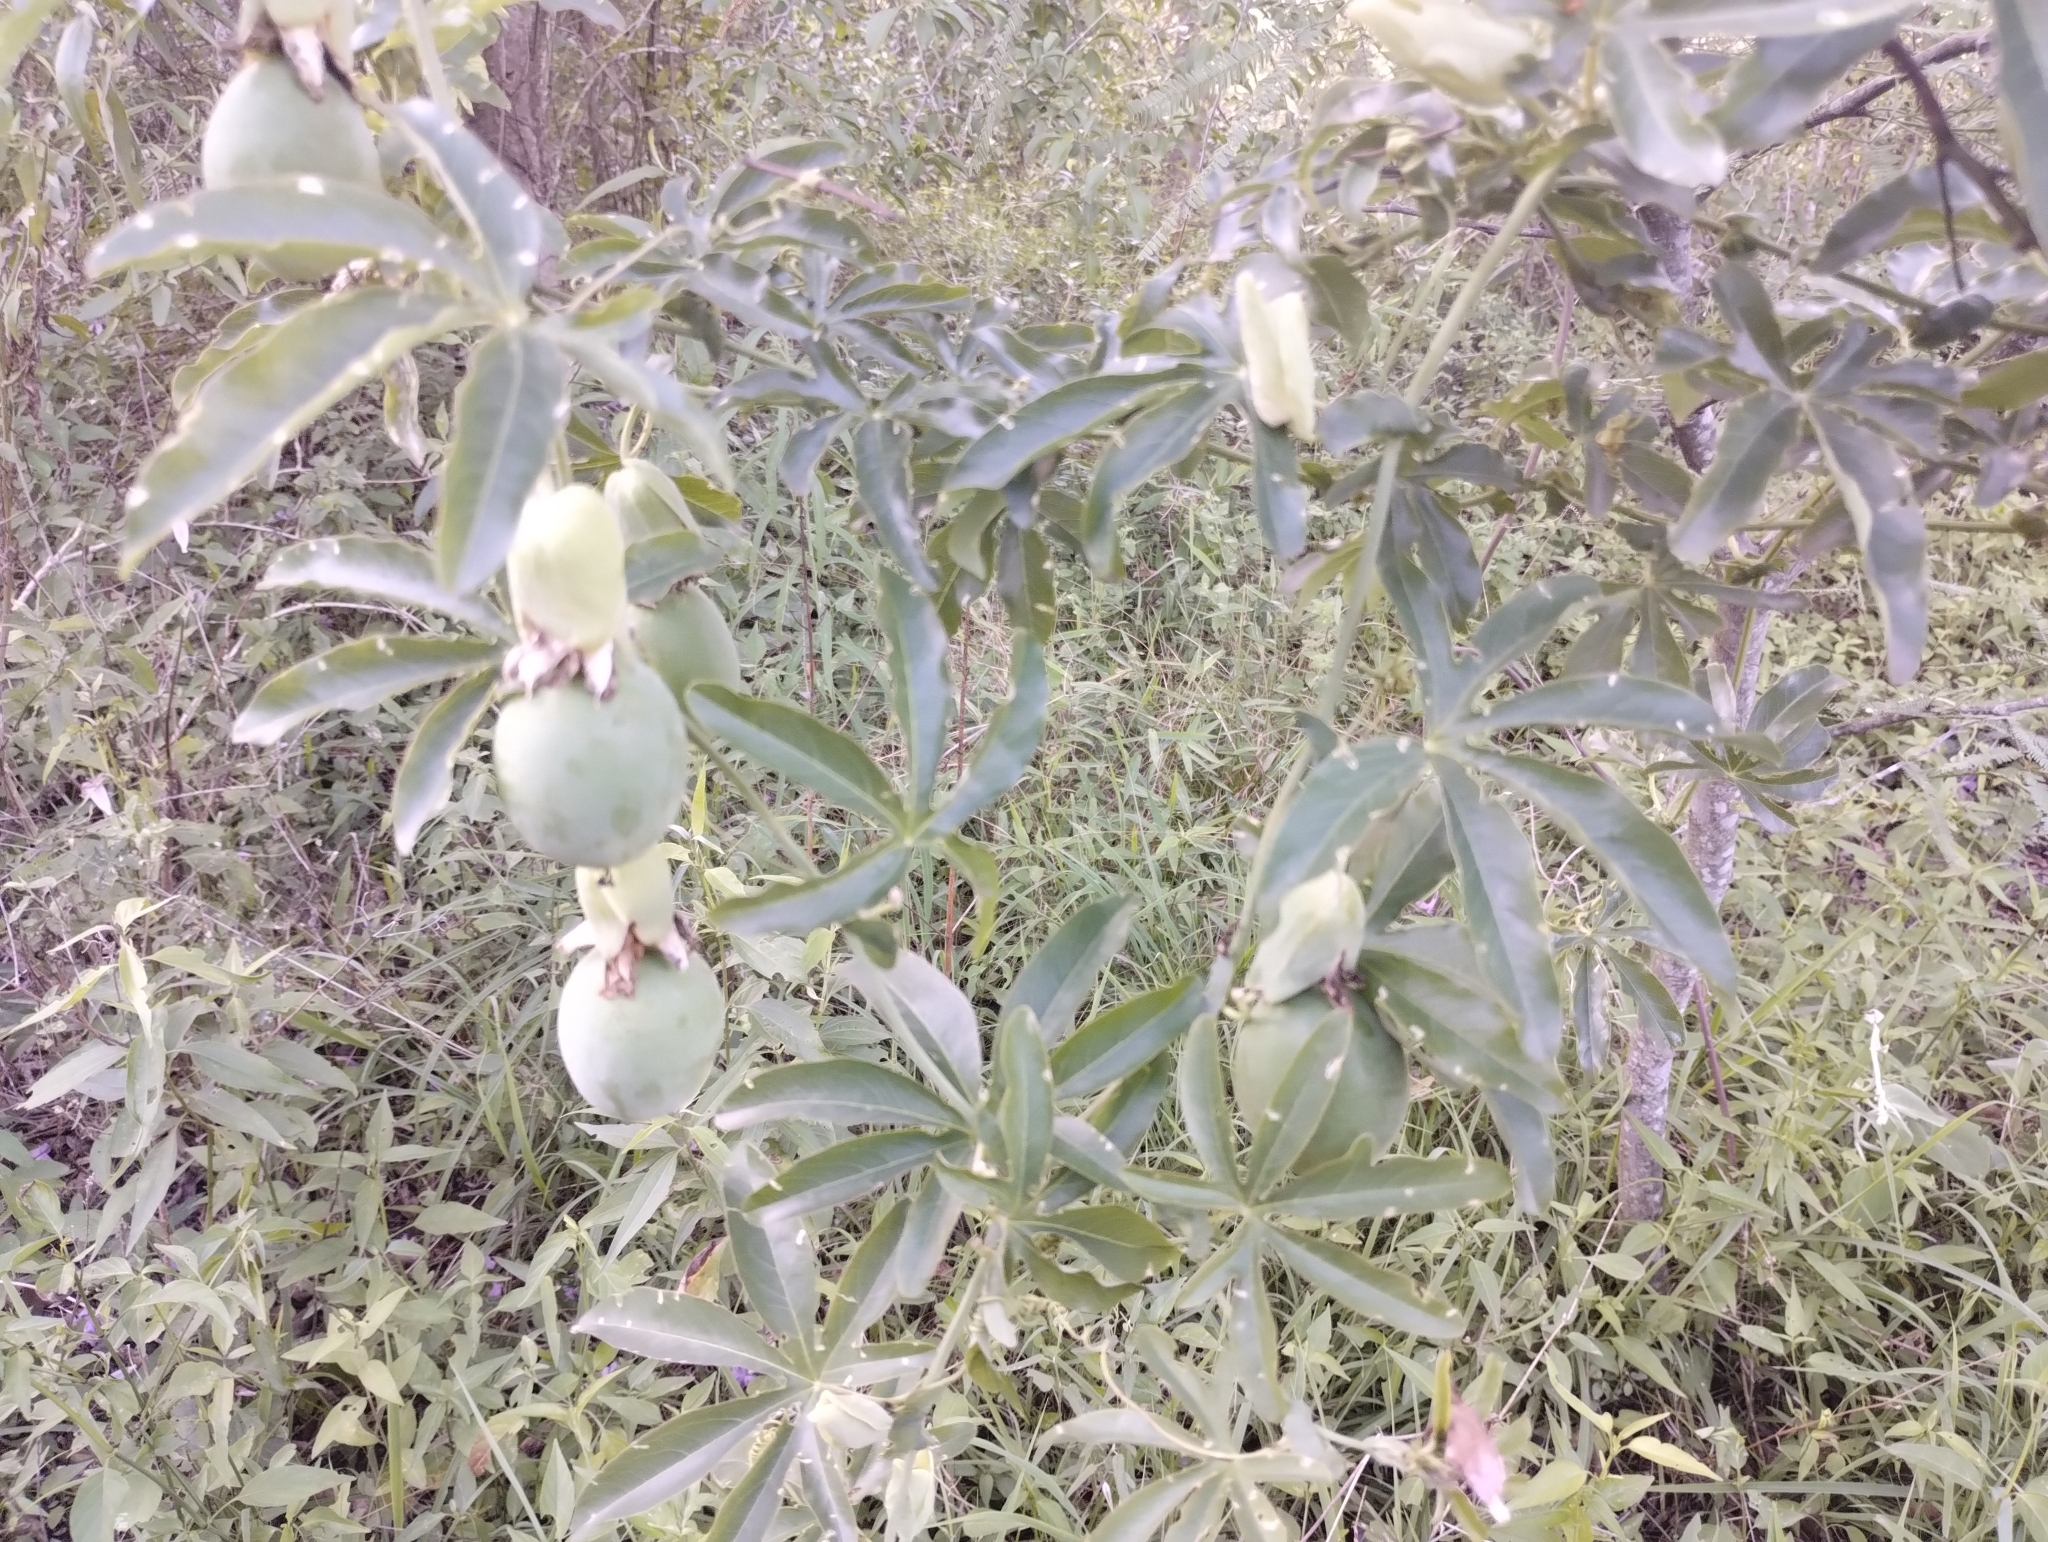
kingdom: Plantae
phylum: Tracheophyta
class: Magnoliopsida
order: Malpighiales
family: Passifloraceae
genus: Passiflora
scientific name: Passiflora caerulea
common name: Blue passionflower
